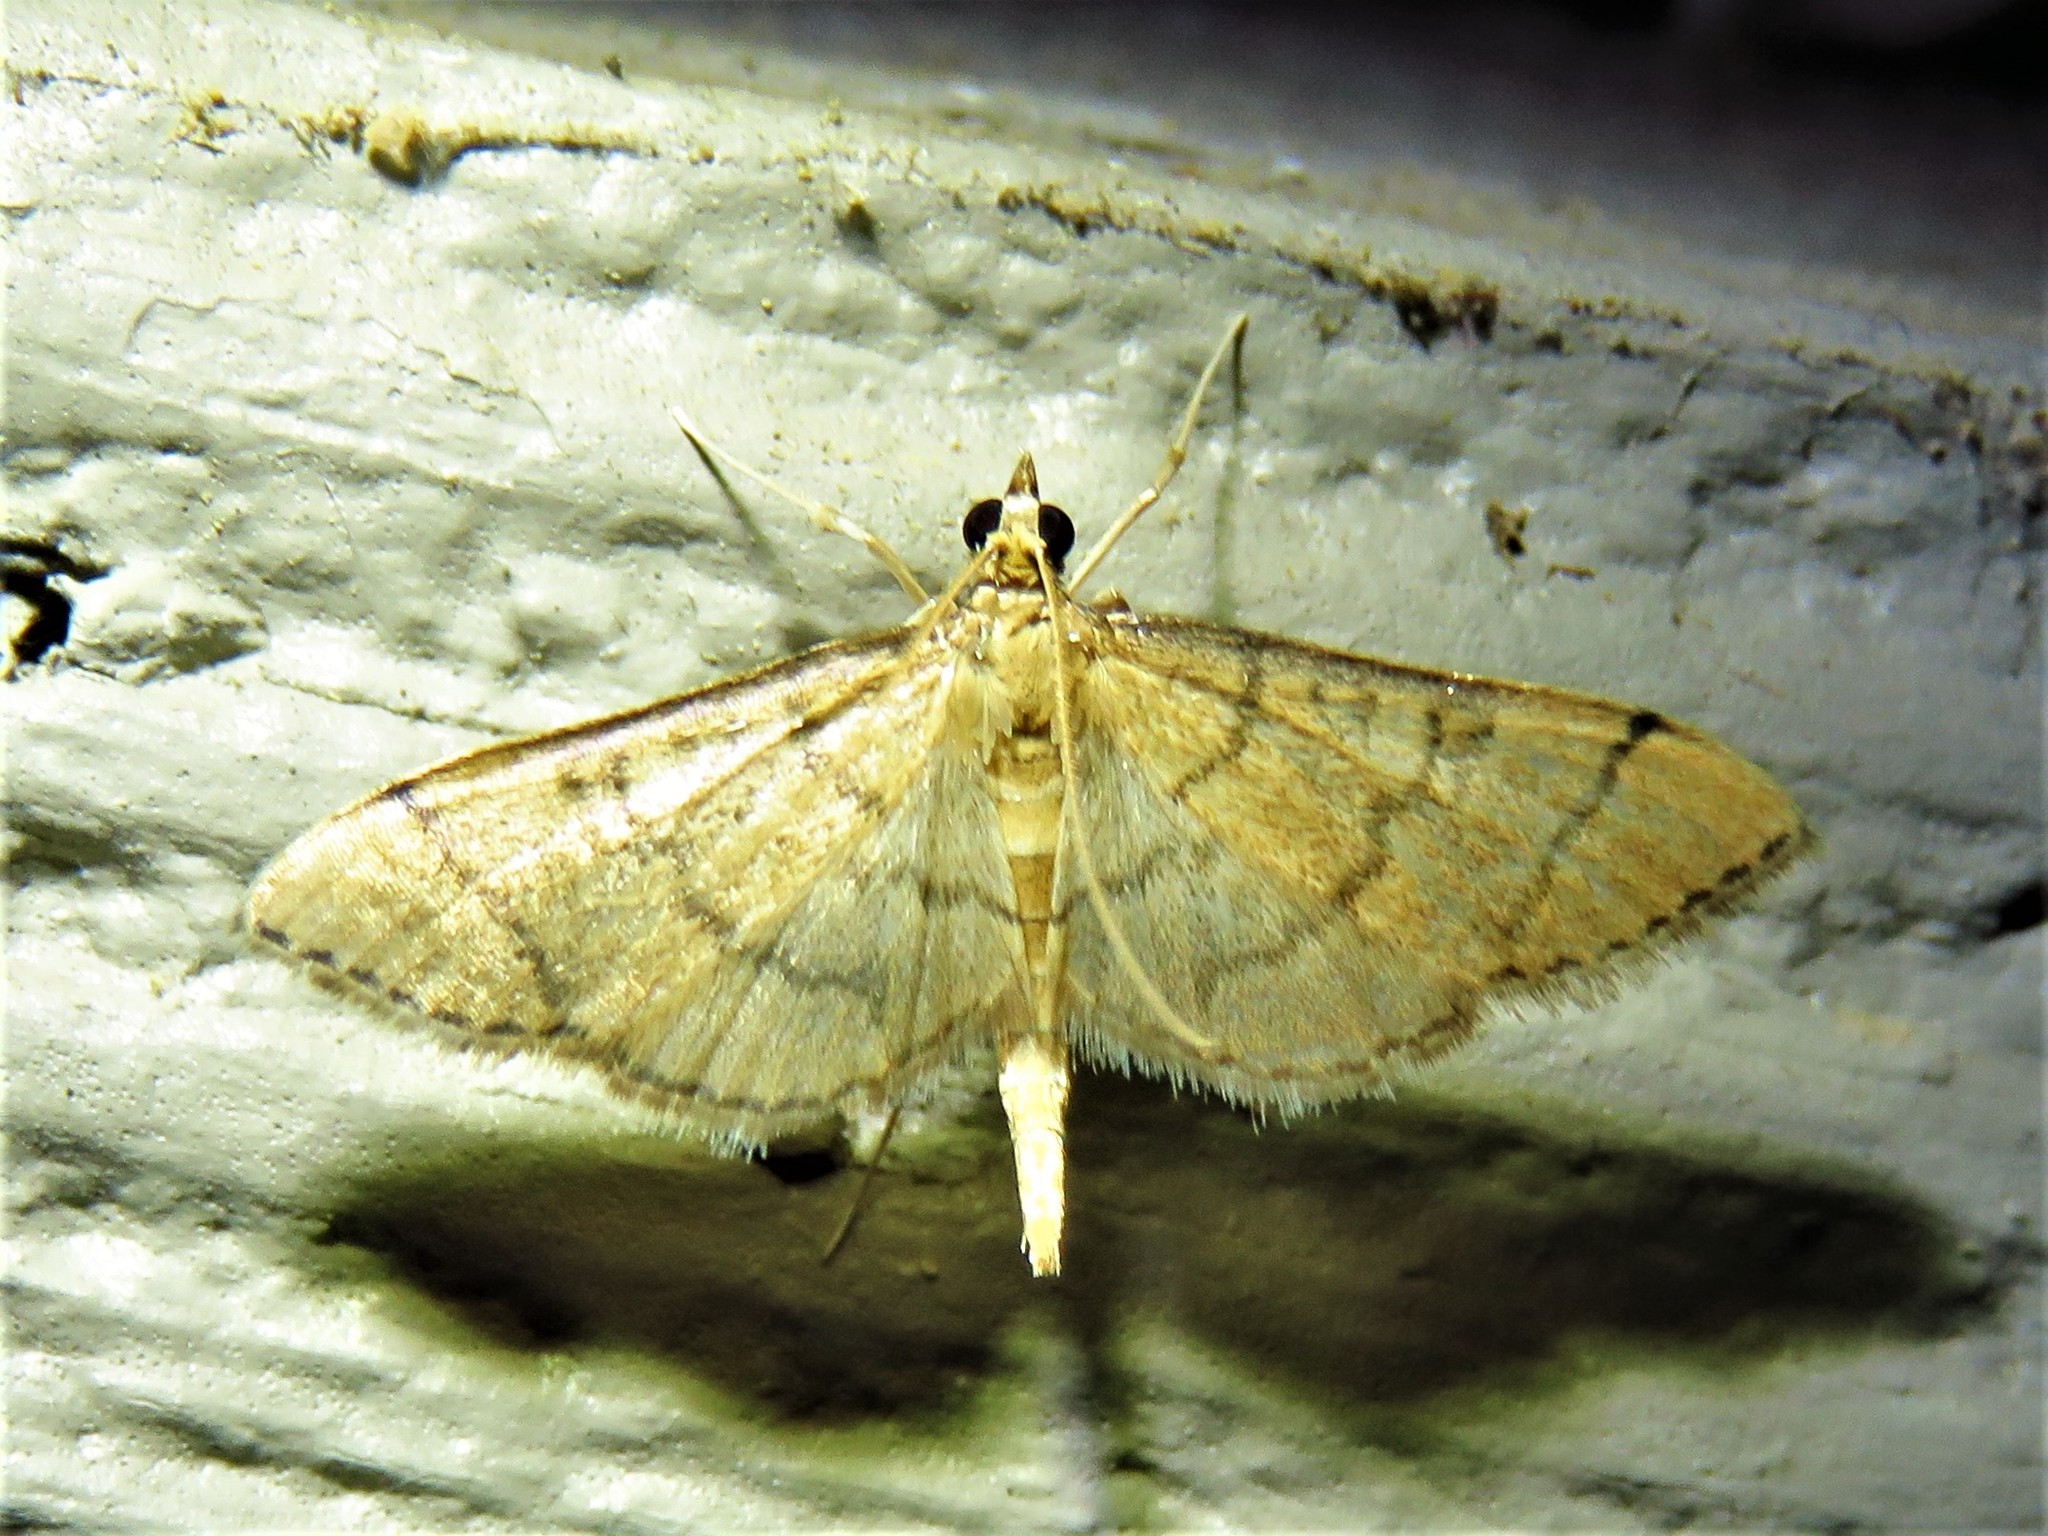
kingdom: Animalia
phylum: Arthropoda
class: Insecta
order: Lepidoptera
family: Crambidae
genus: Lamprosema
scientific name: Lamprosema Blepharomastix ranalis
